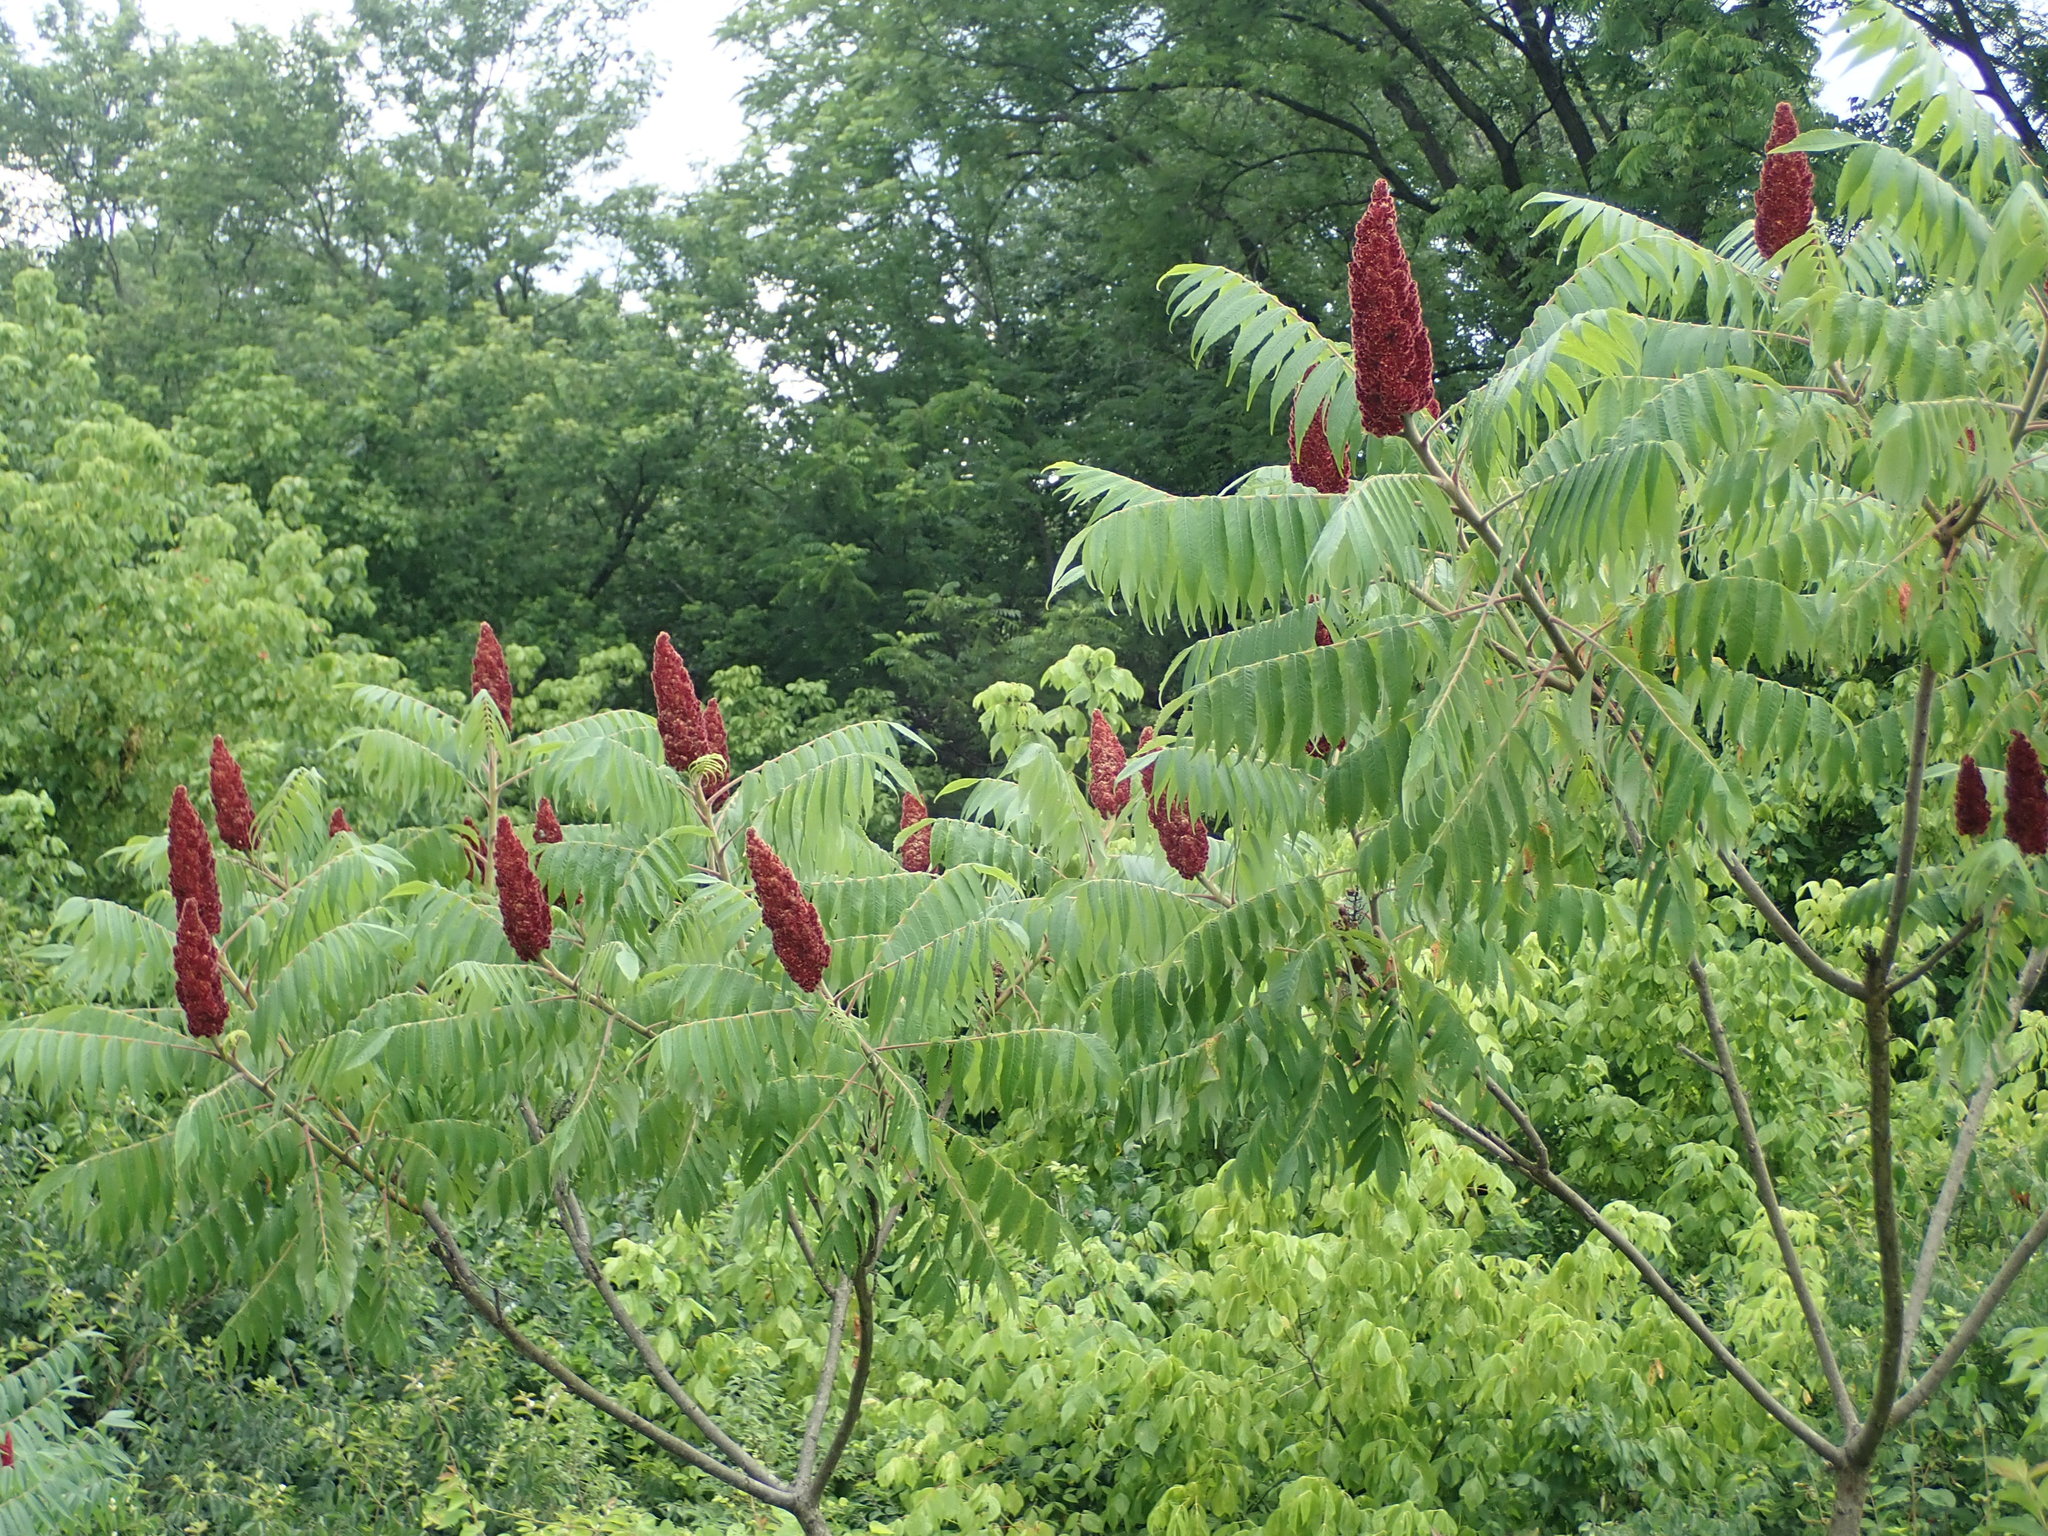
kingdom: Plantae
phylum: Tracheophyta
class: Magnoliopsida
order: Sapindales
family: Anacardiaceae
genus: Rhus
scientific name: Rhus typhina
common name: Staghorn sumac
